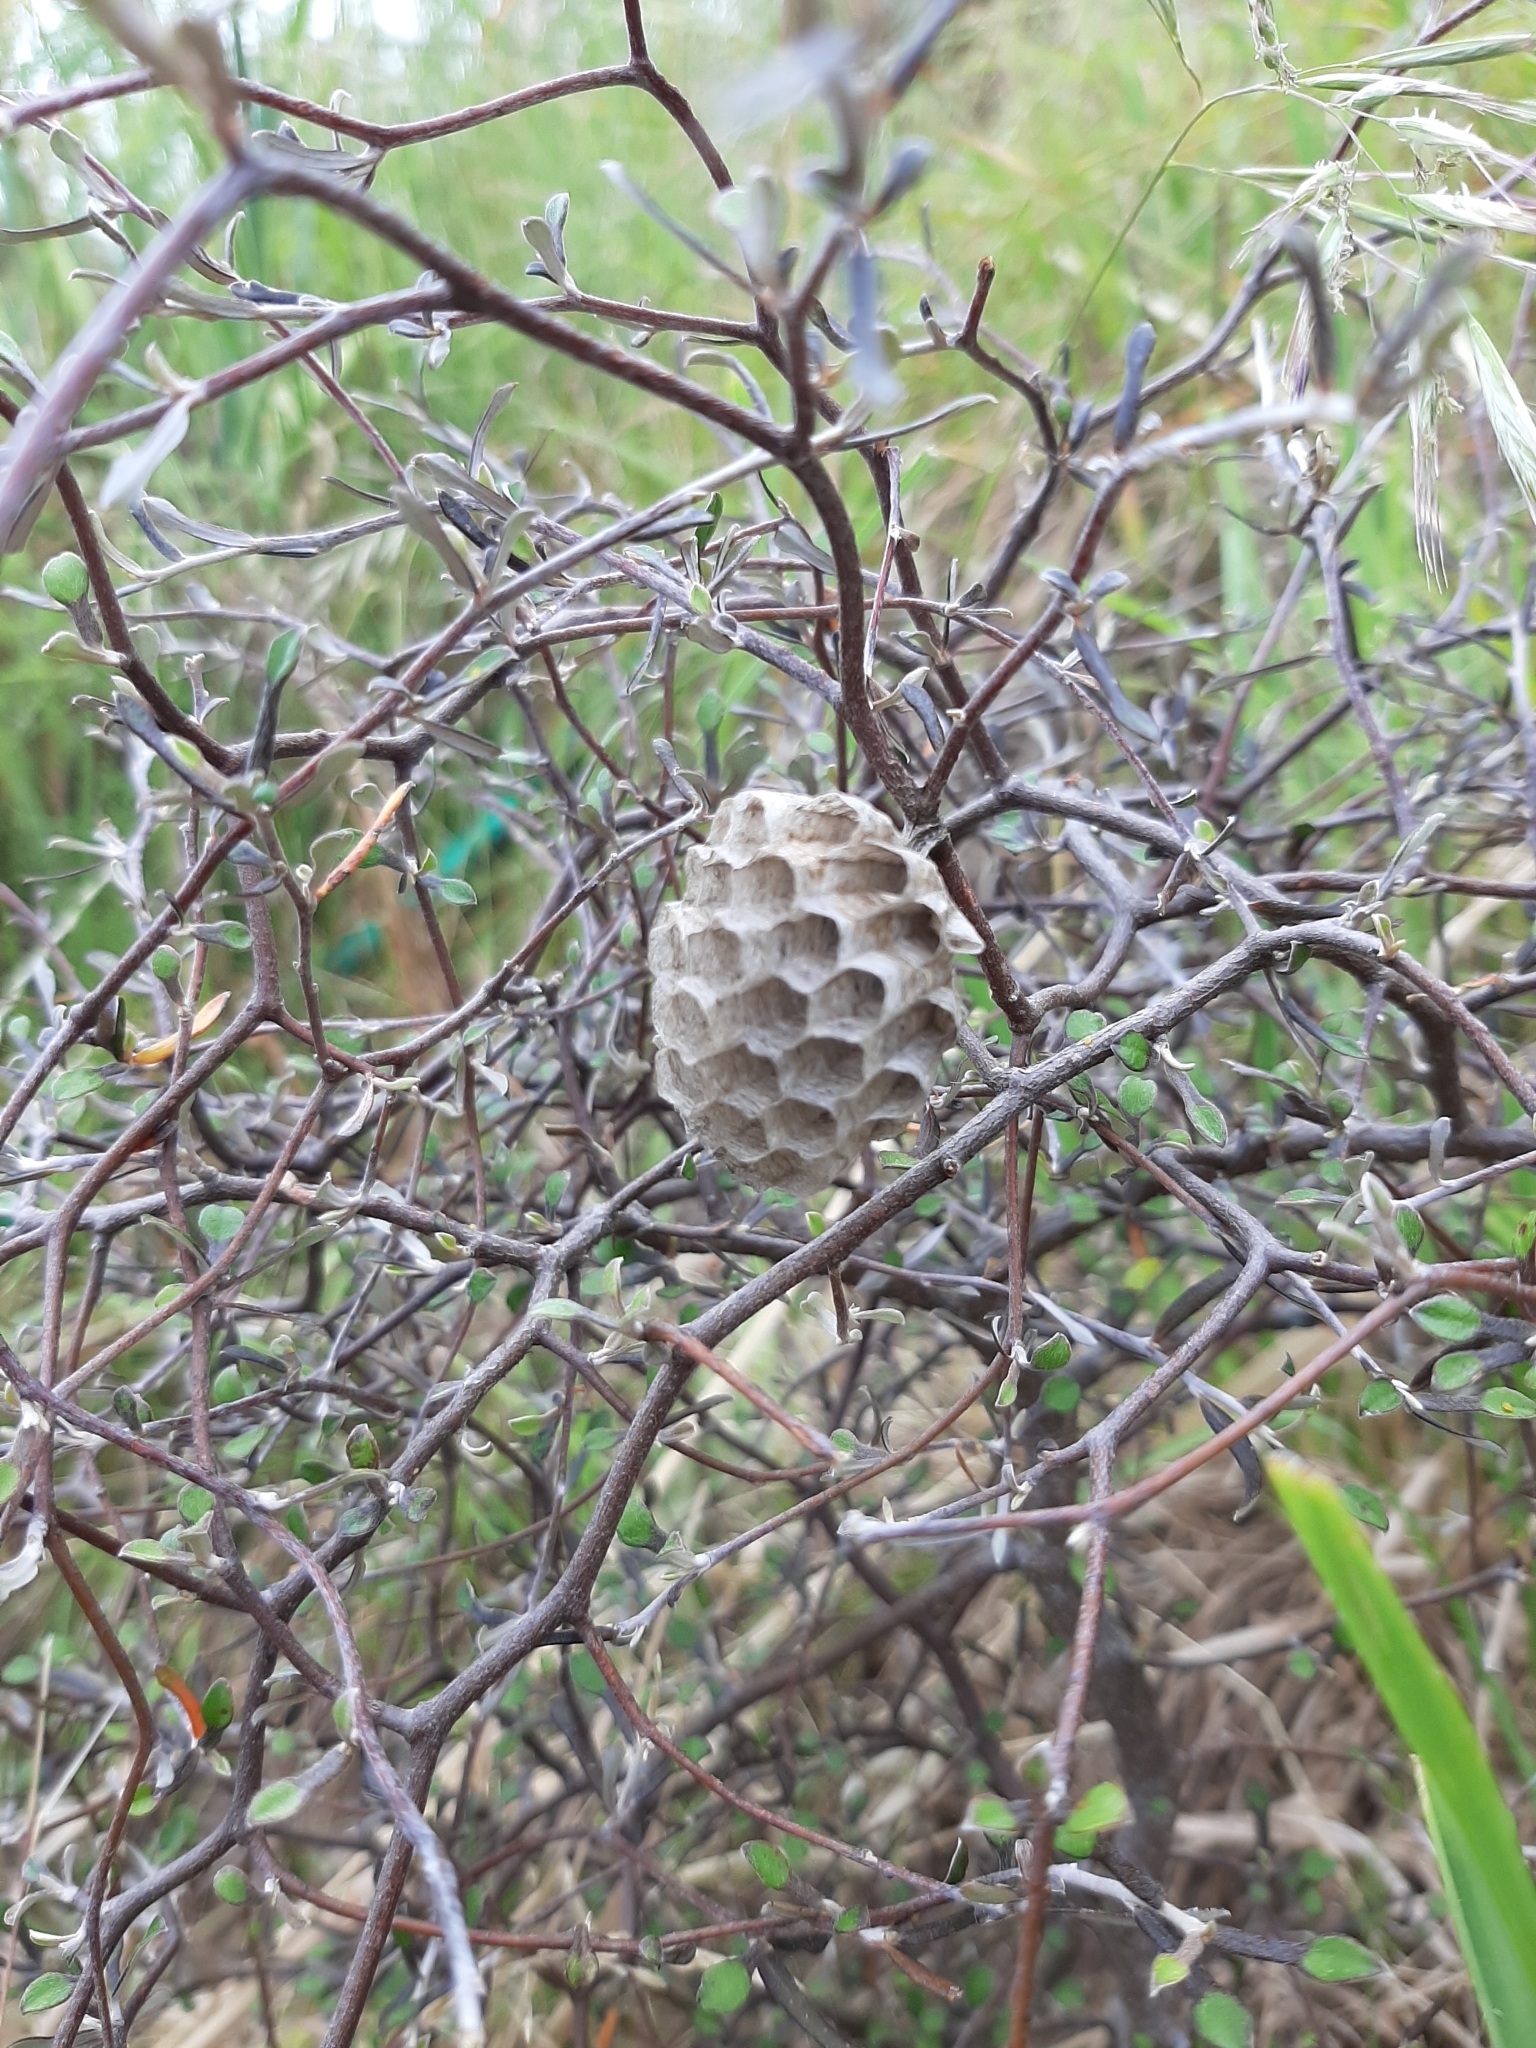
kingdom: Animalia
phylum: Arthropoda
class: Insecta
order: Hymenoptera
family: Eumenidae
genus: Polistes
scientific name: Polistes chinensis
